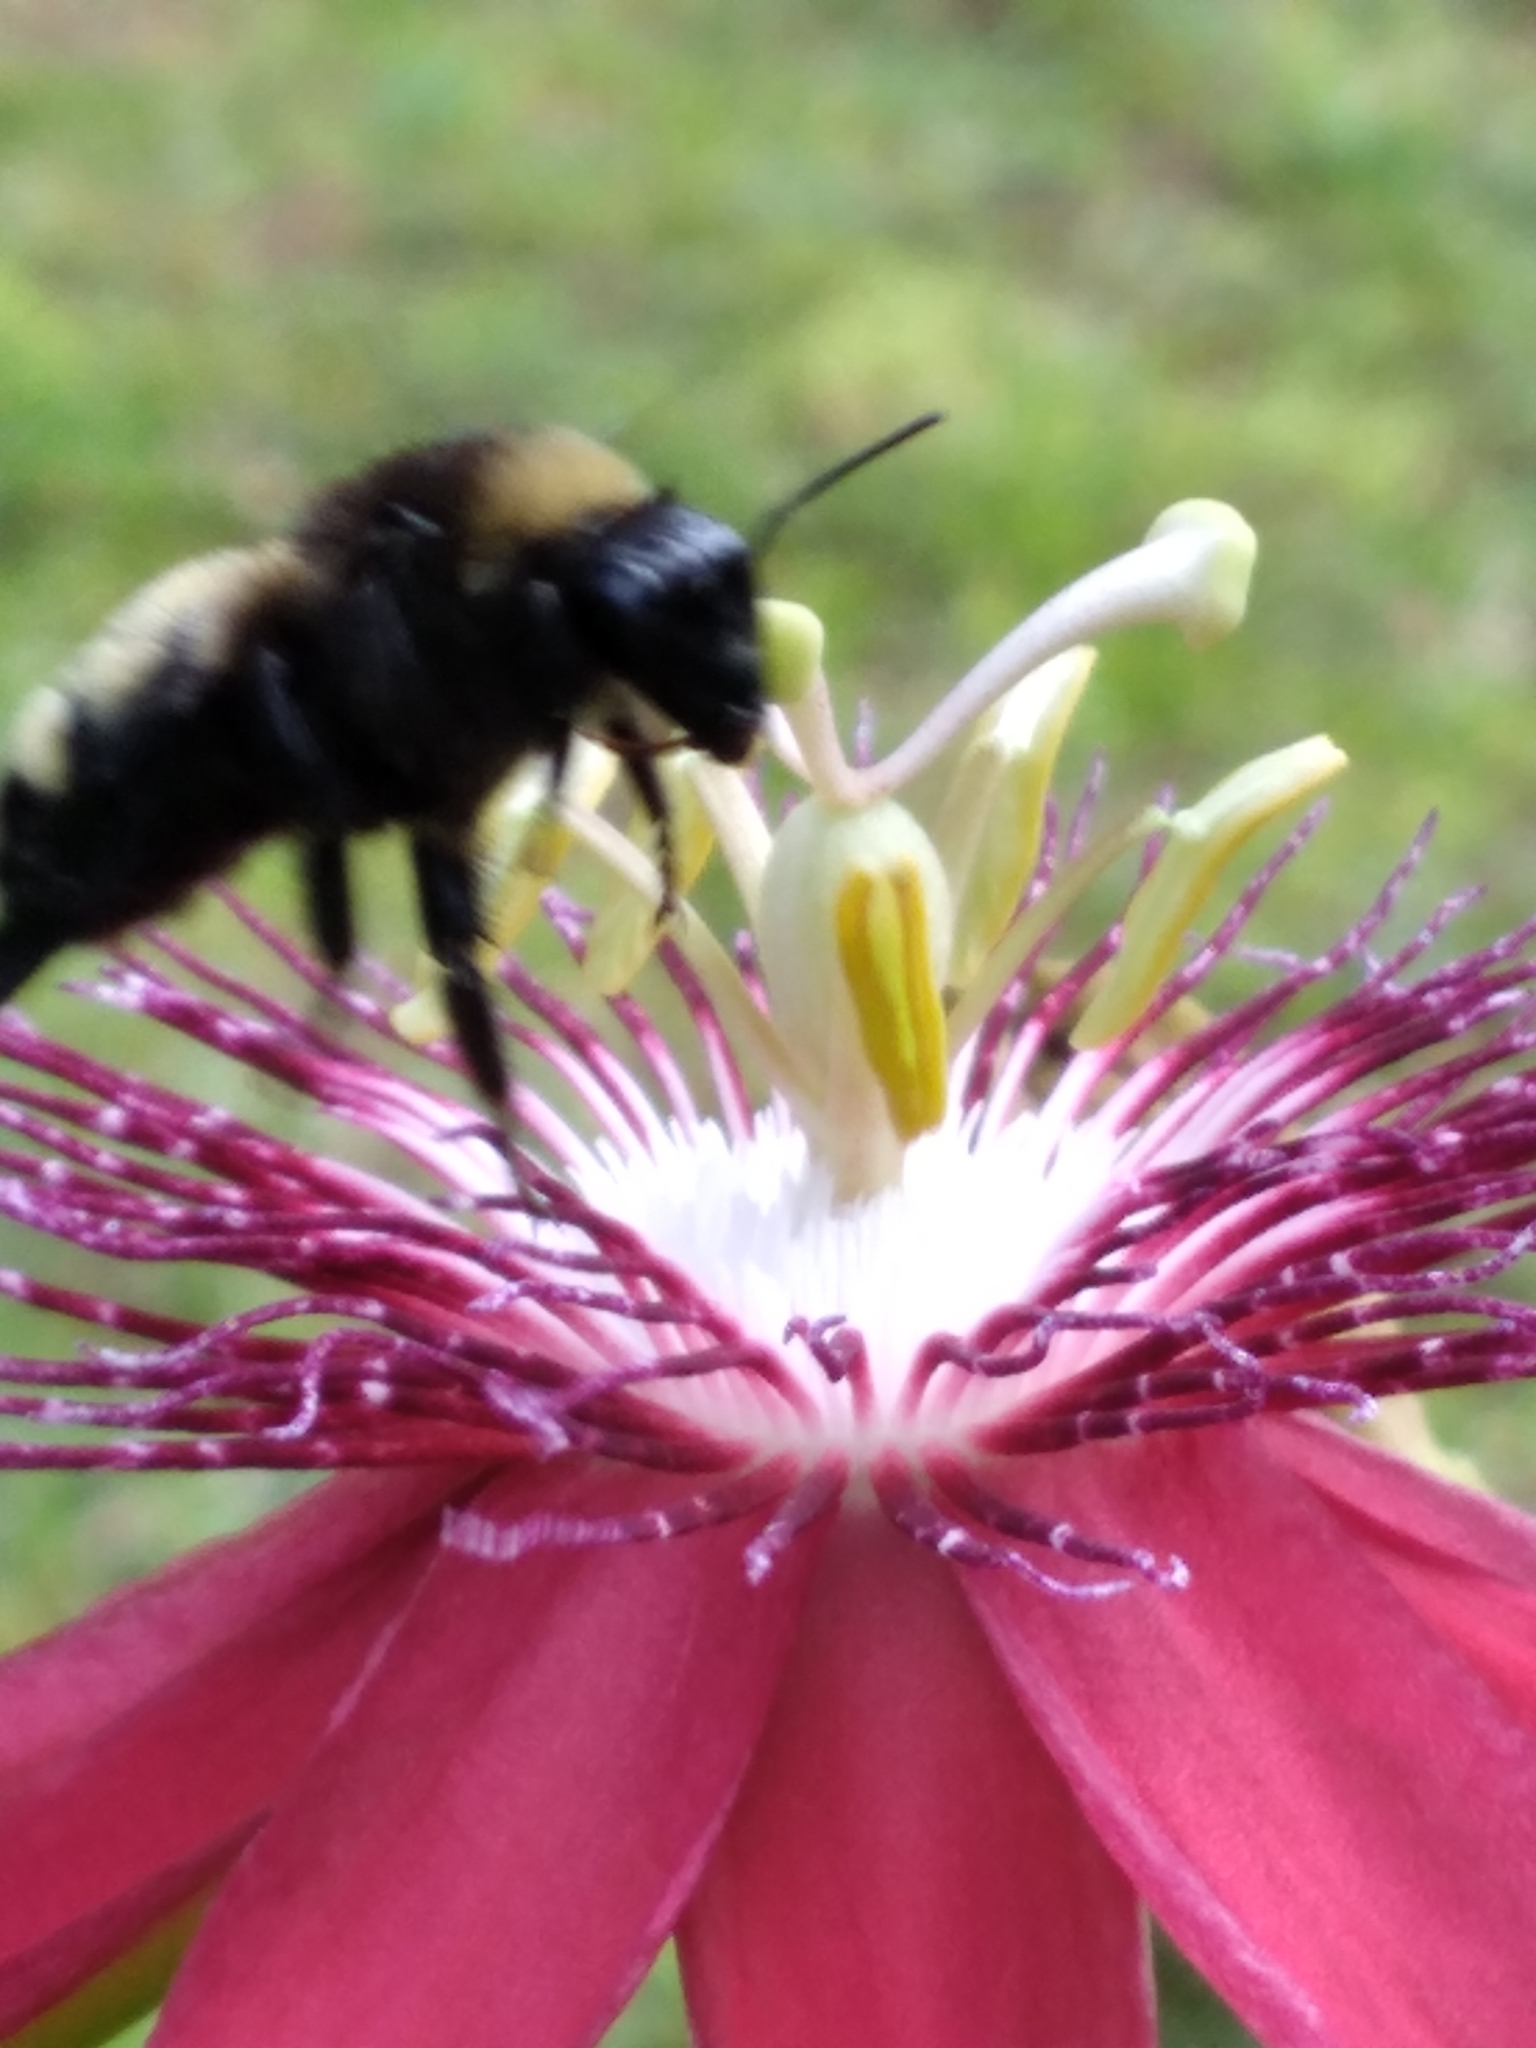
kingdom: Animalia
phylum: Arthropoda
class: Insecta
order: Hymenoptera
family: Apidae
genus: Bombus
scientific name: Bombus pensylvanicus
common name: Bumble bee
